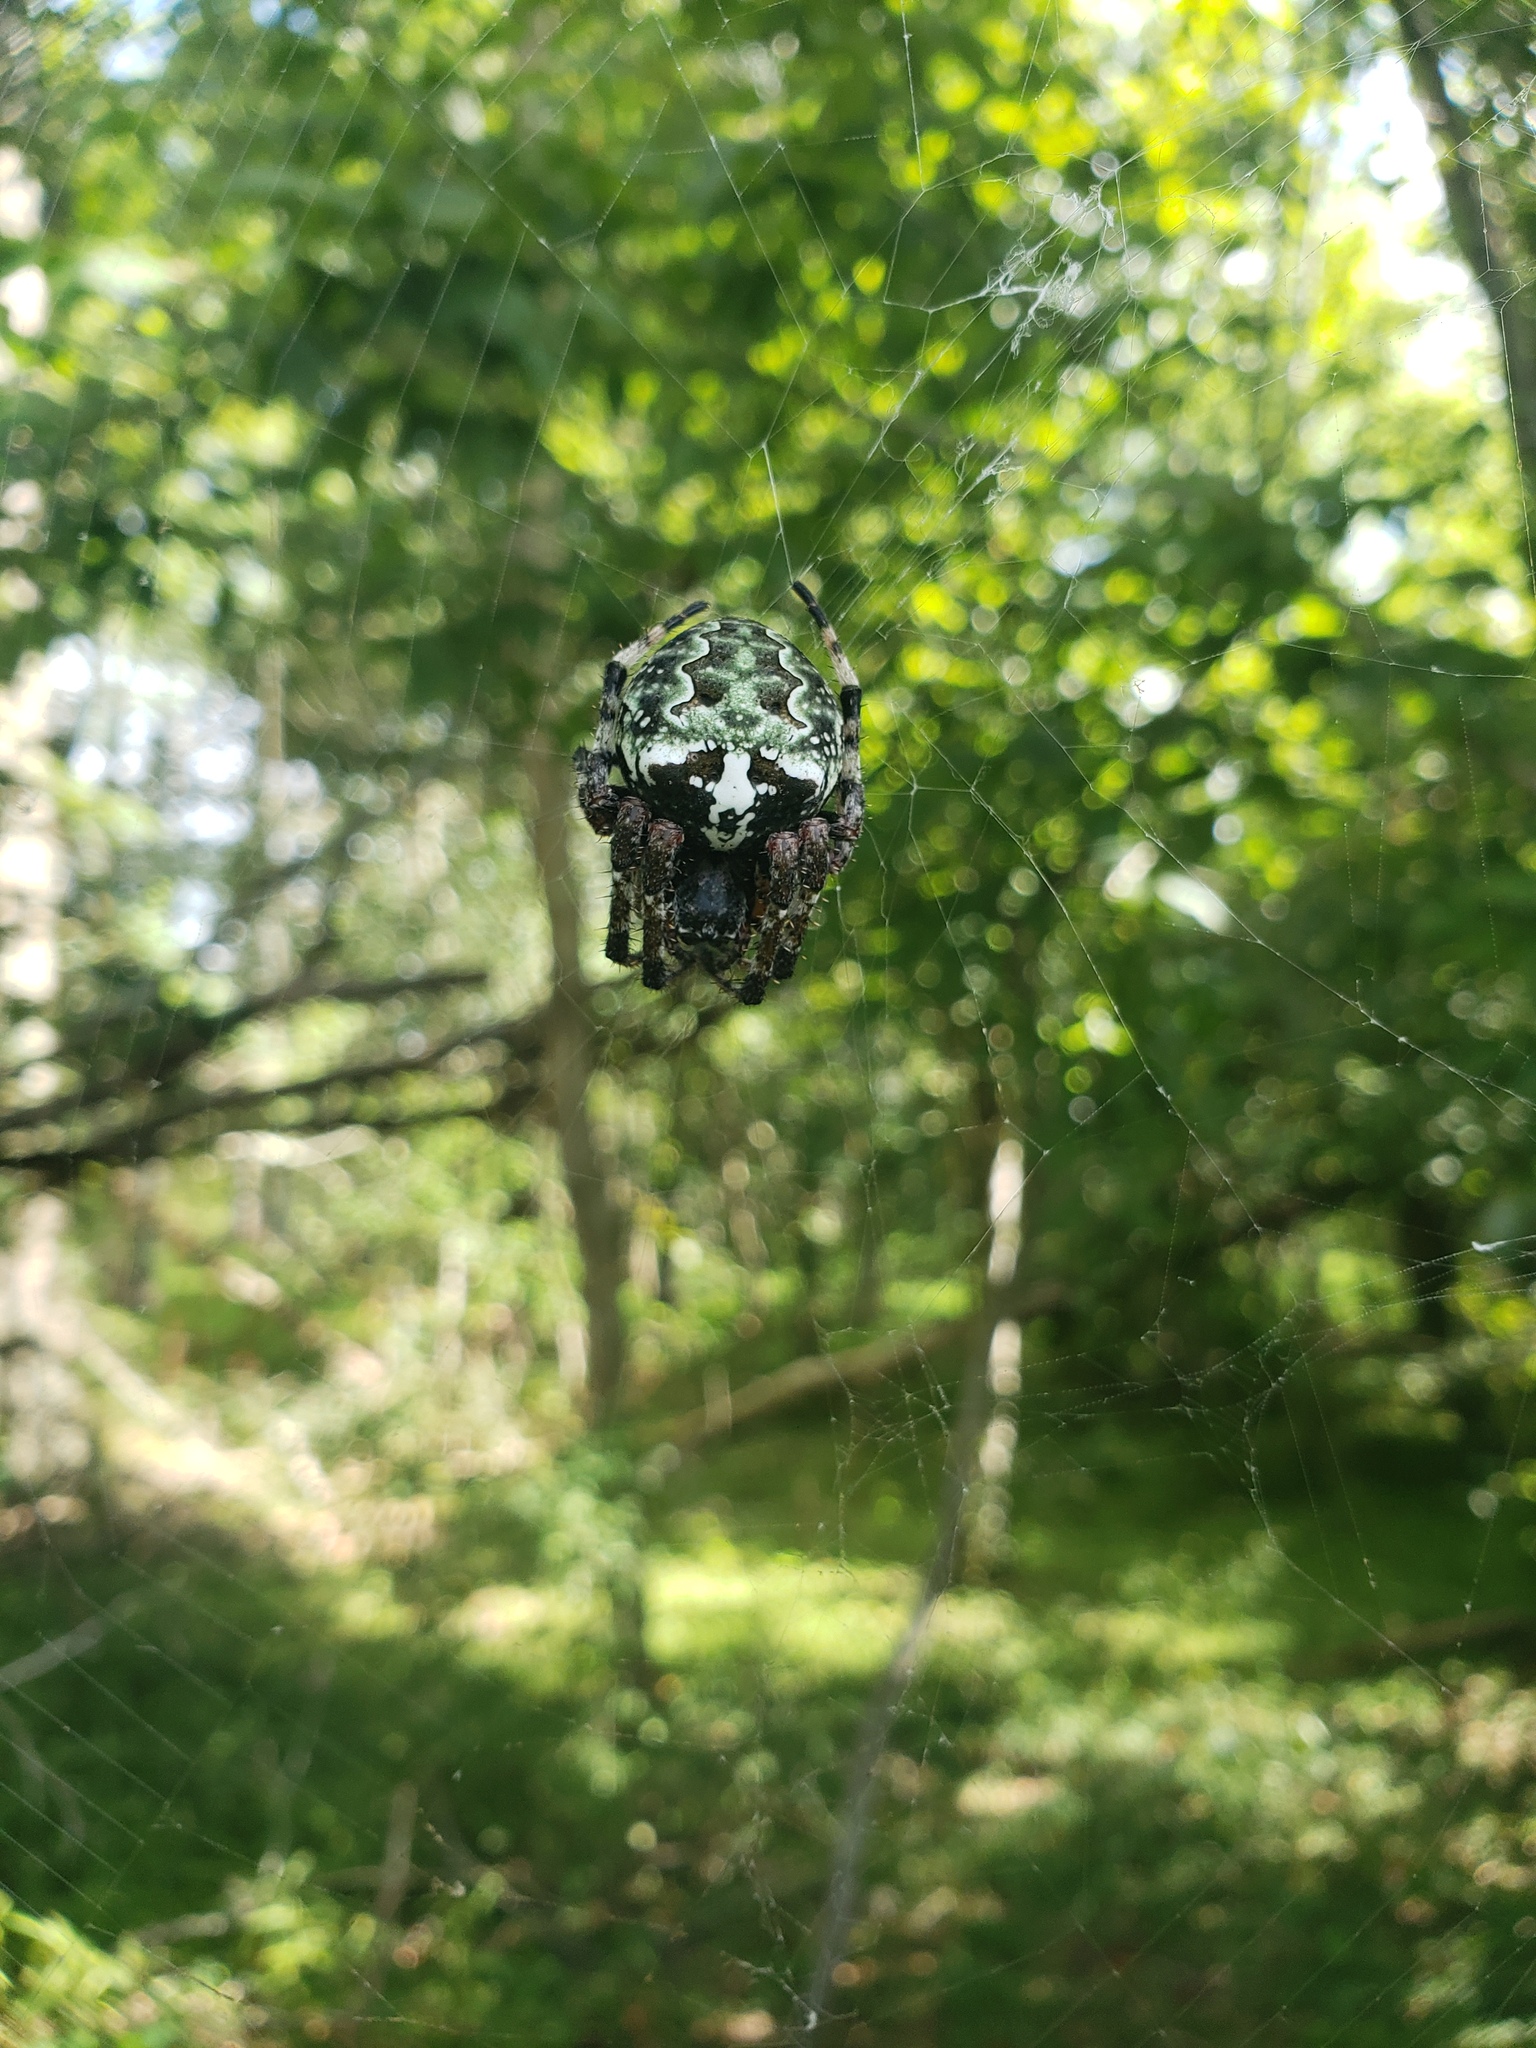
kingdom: Animalia
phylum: Arthropoda
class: Arachnida
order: Araneae
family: Araneidae
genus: Araneus
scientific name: Araneus bicentenarius
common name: Giant lichen orbweaver
